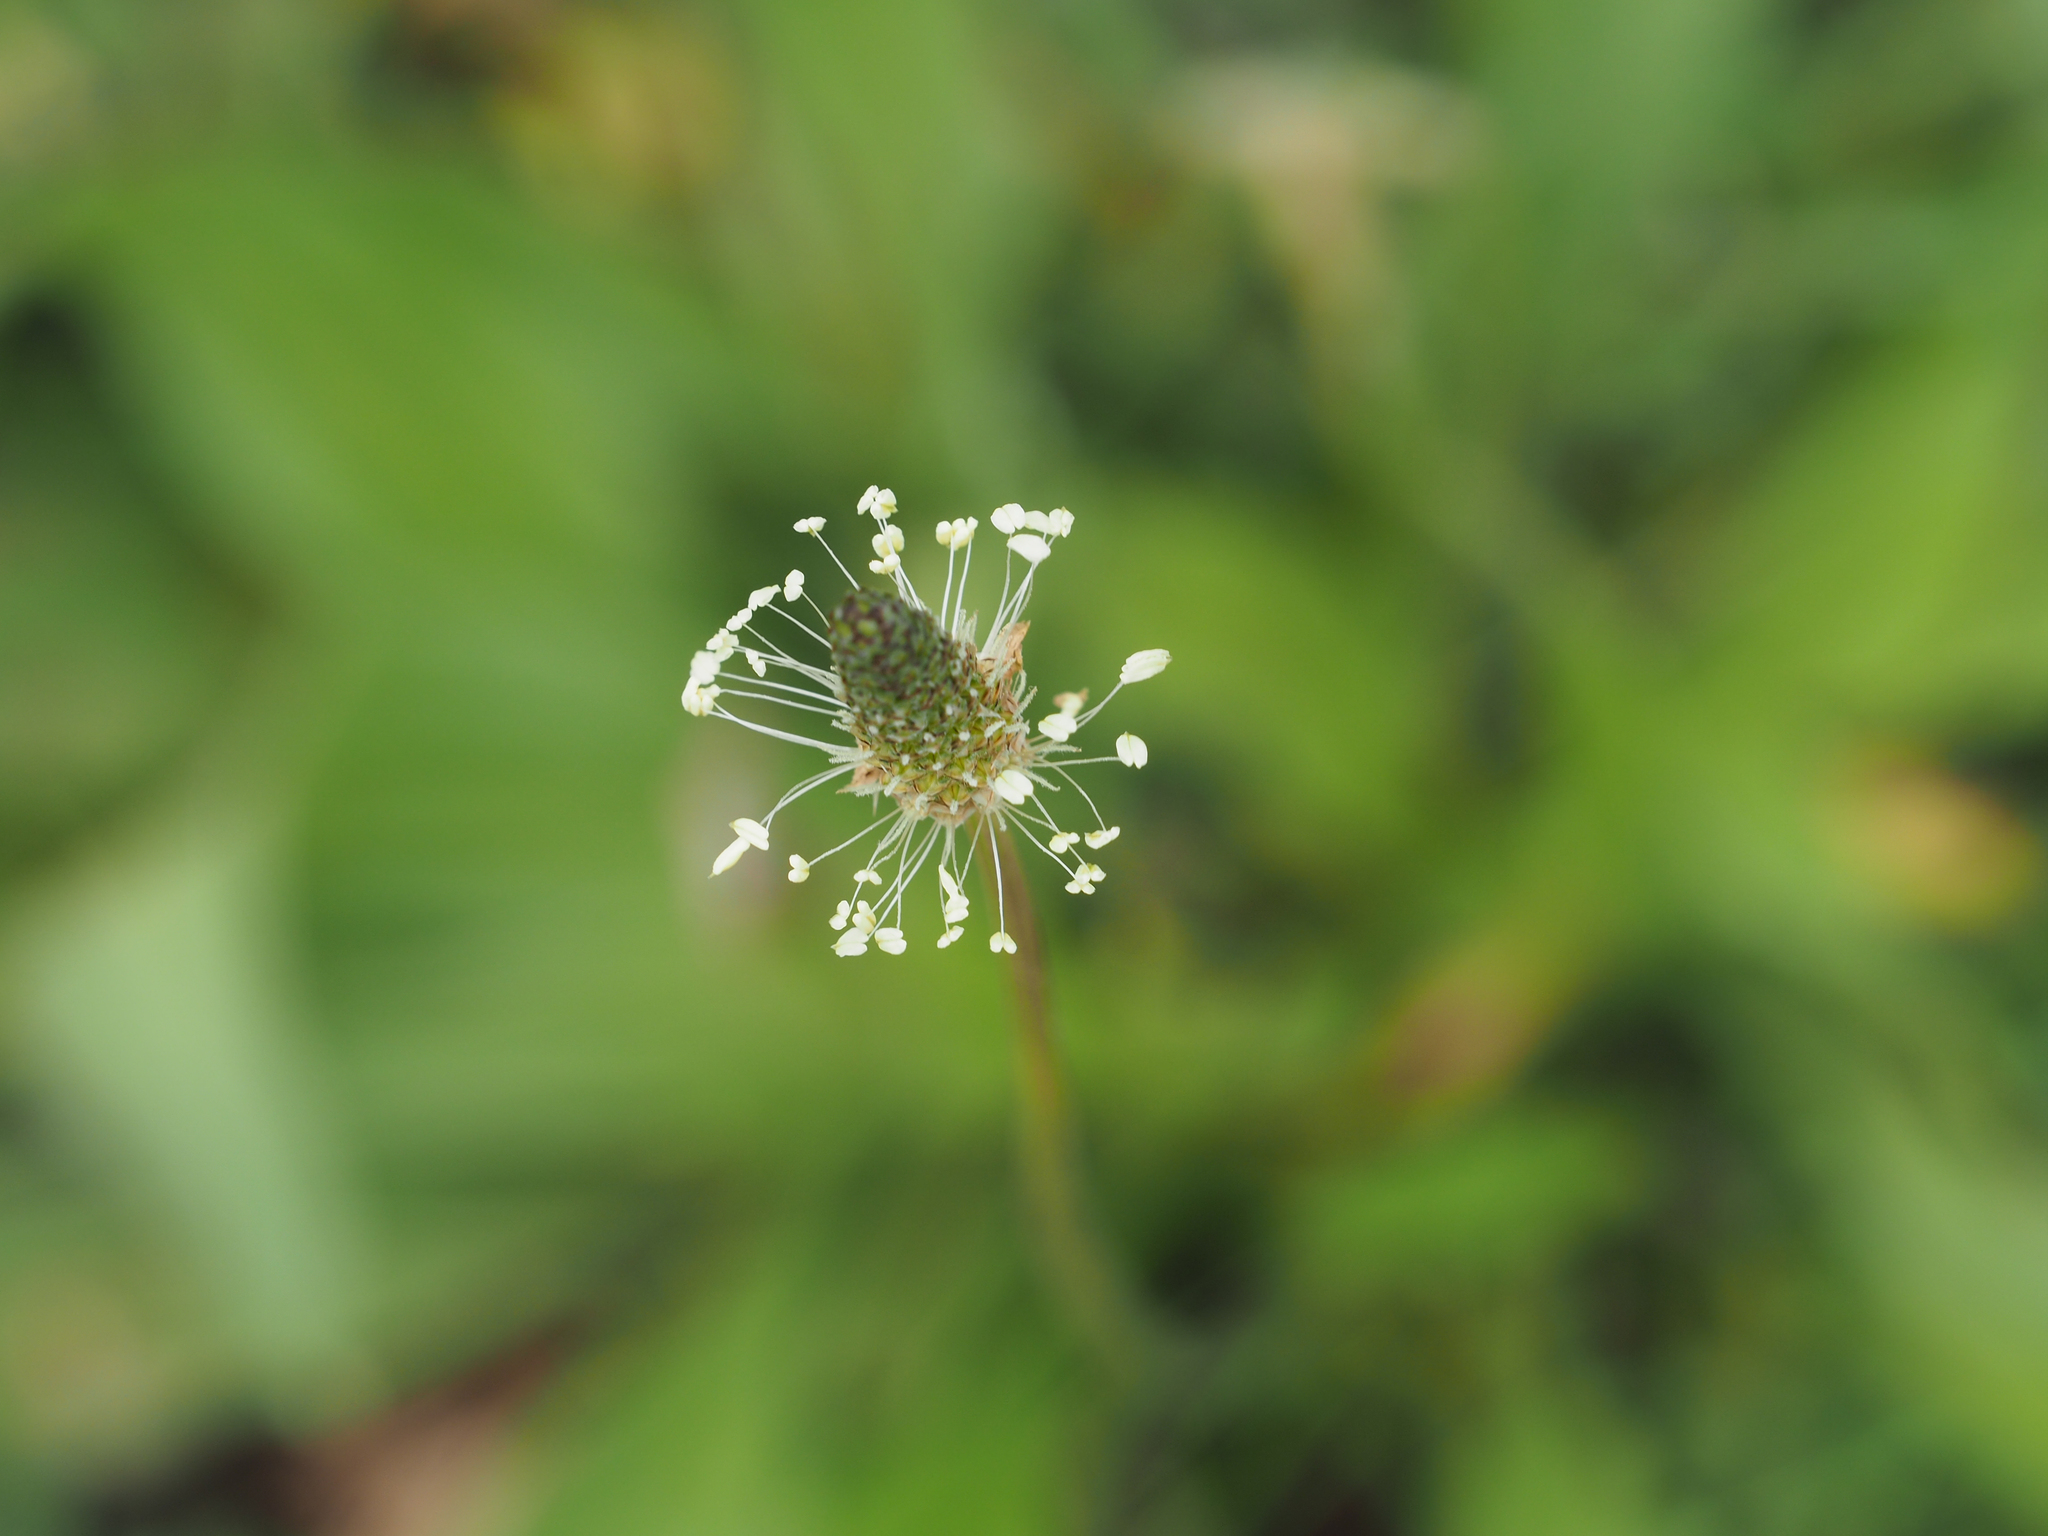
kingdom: Plantae
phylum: Tracheophyta
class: Magnoliopsida
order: Lamiales
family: Plantaginaceae
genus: Plantago
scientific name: Plantago lanceolata
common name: Ribwort plantain
